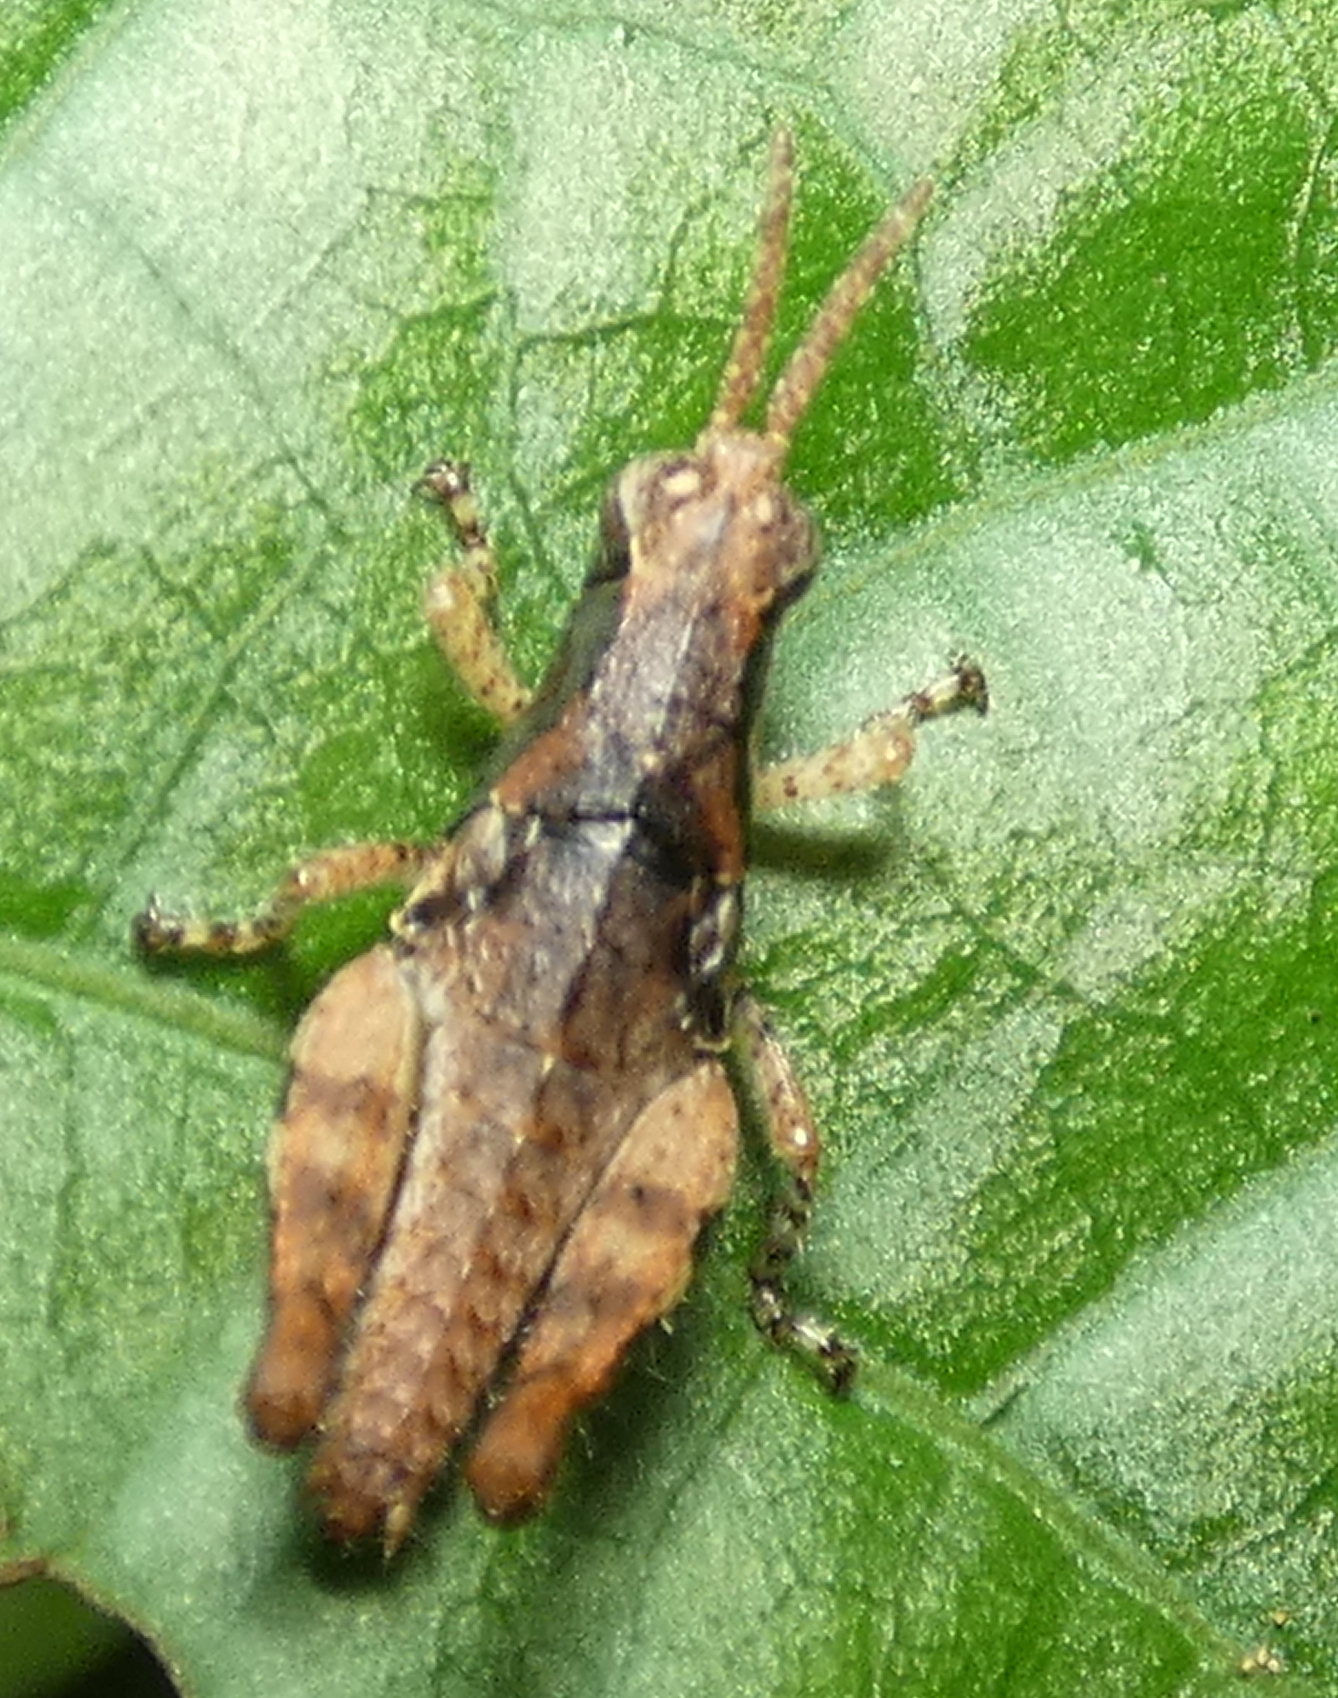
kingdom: Animalia
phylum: Arthropoda
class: Insecta
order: Orthoptera
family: Acrididae
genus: Eujivarus
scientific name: Eujivarus meridionalis
